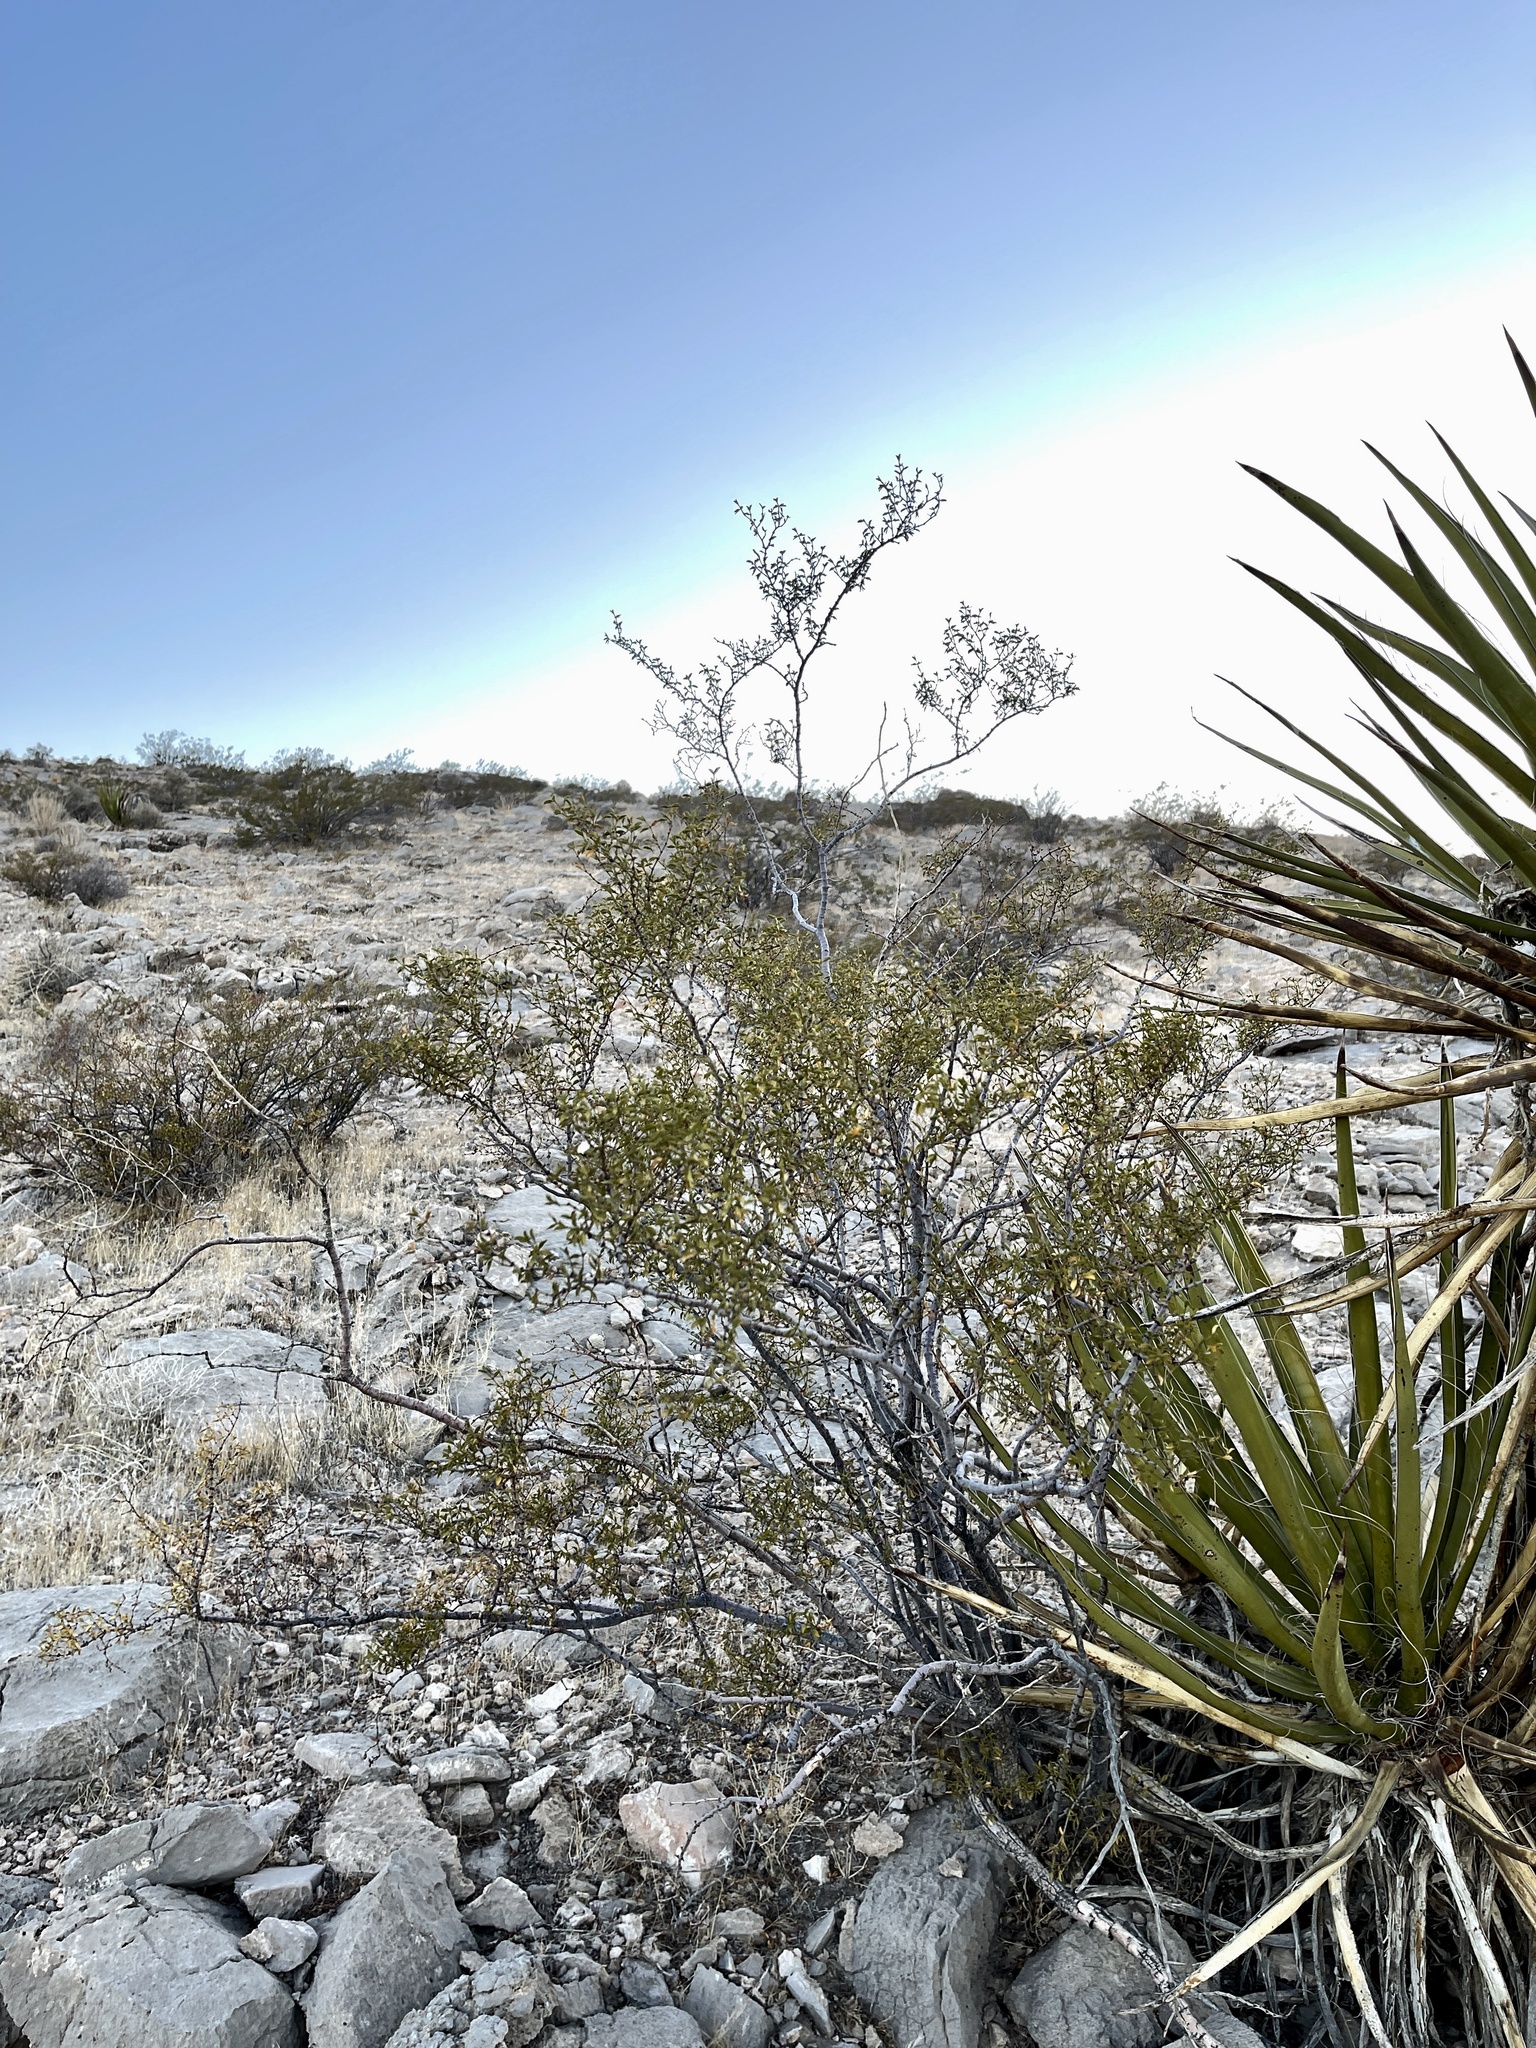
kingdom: Plantae
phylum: Tracheophyta
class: Magnoliopsida
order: Zygophyllales
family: Zygophyllaceae
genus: Larrea
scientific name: Larrea tridentata
